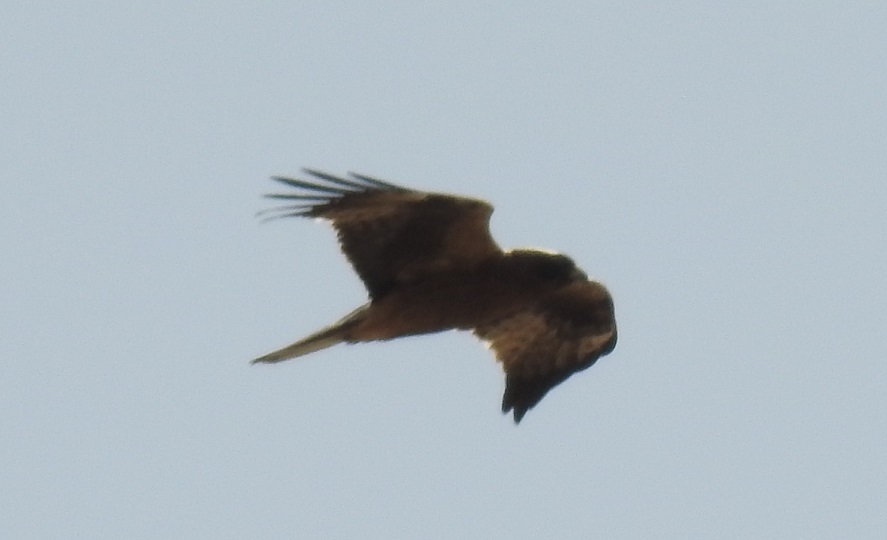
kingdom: Animalia
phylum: Chordata
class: Aves
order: Accipitriformes
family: Accipitridae
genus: Hieraaetus
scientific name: Hieraaetus pennatus
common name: Booted eagle
